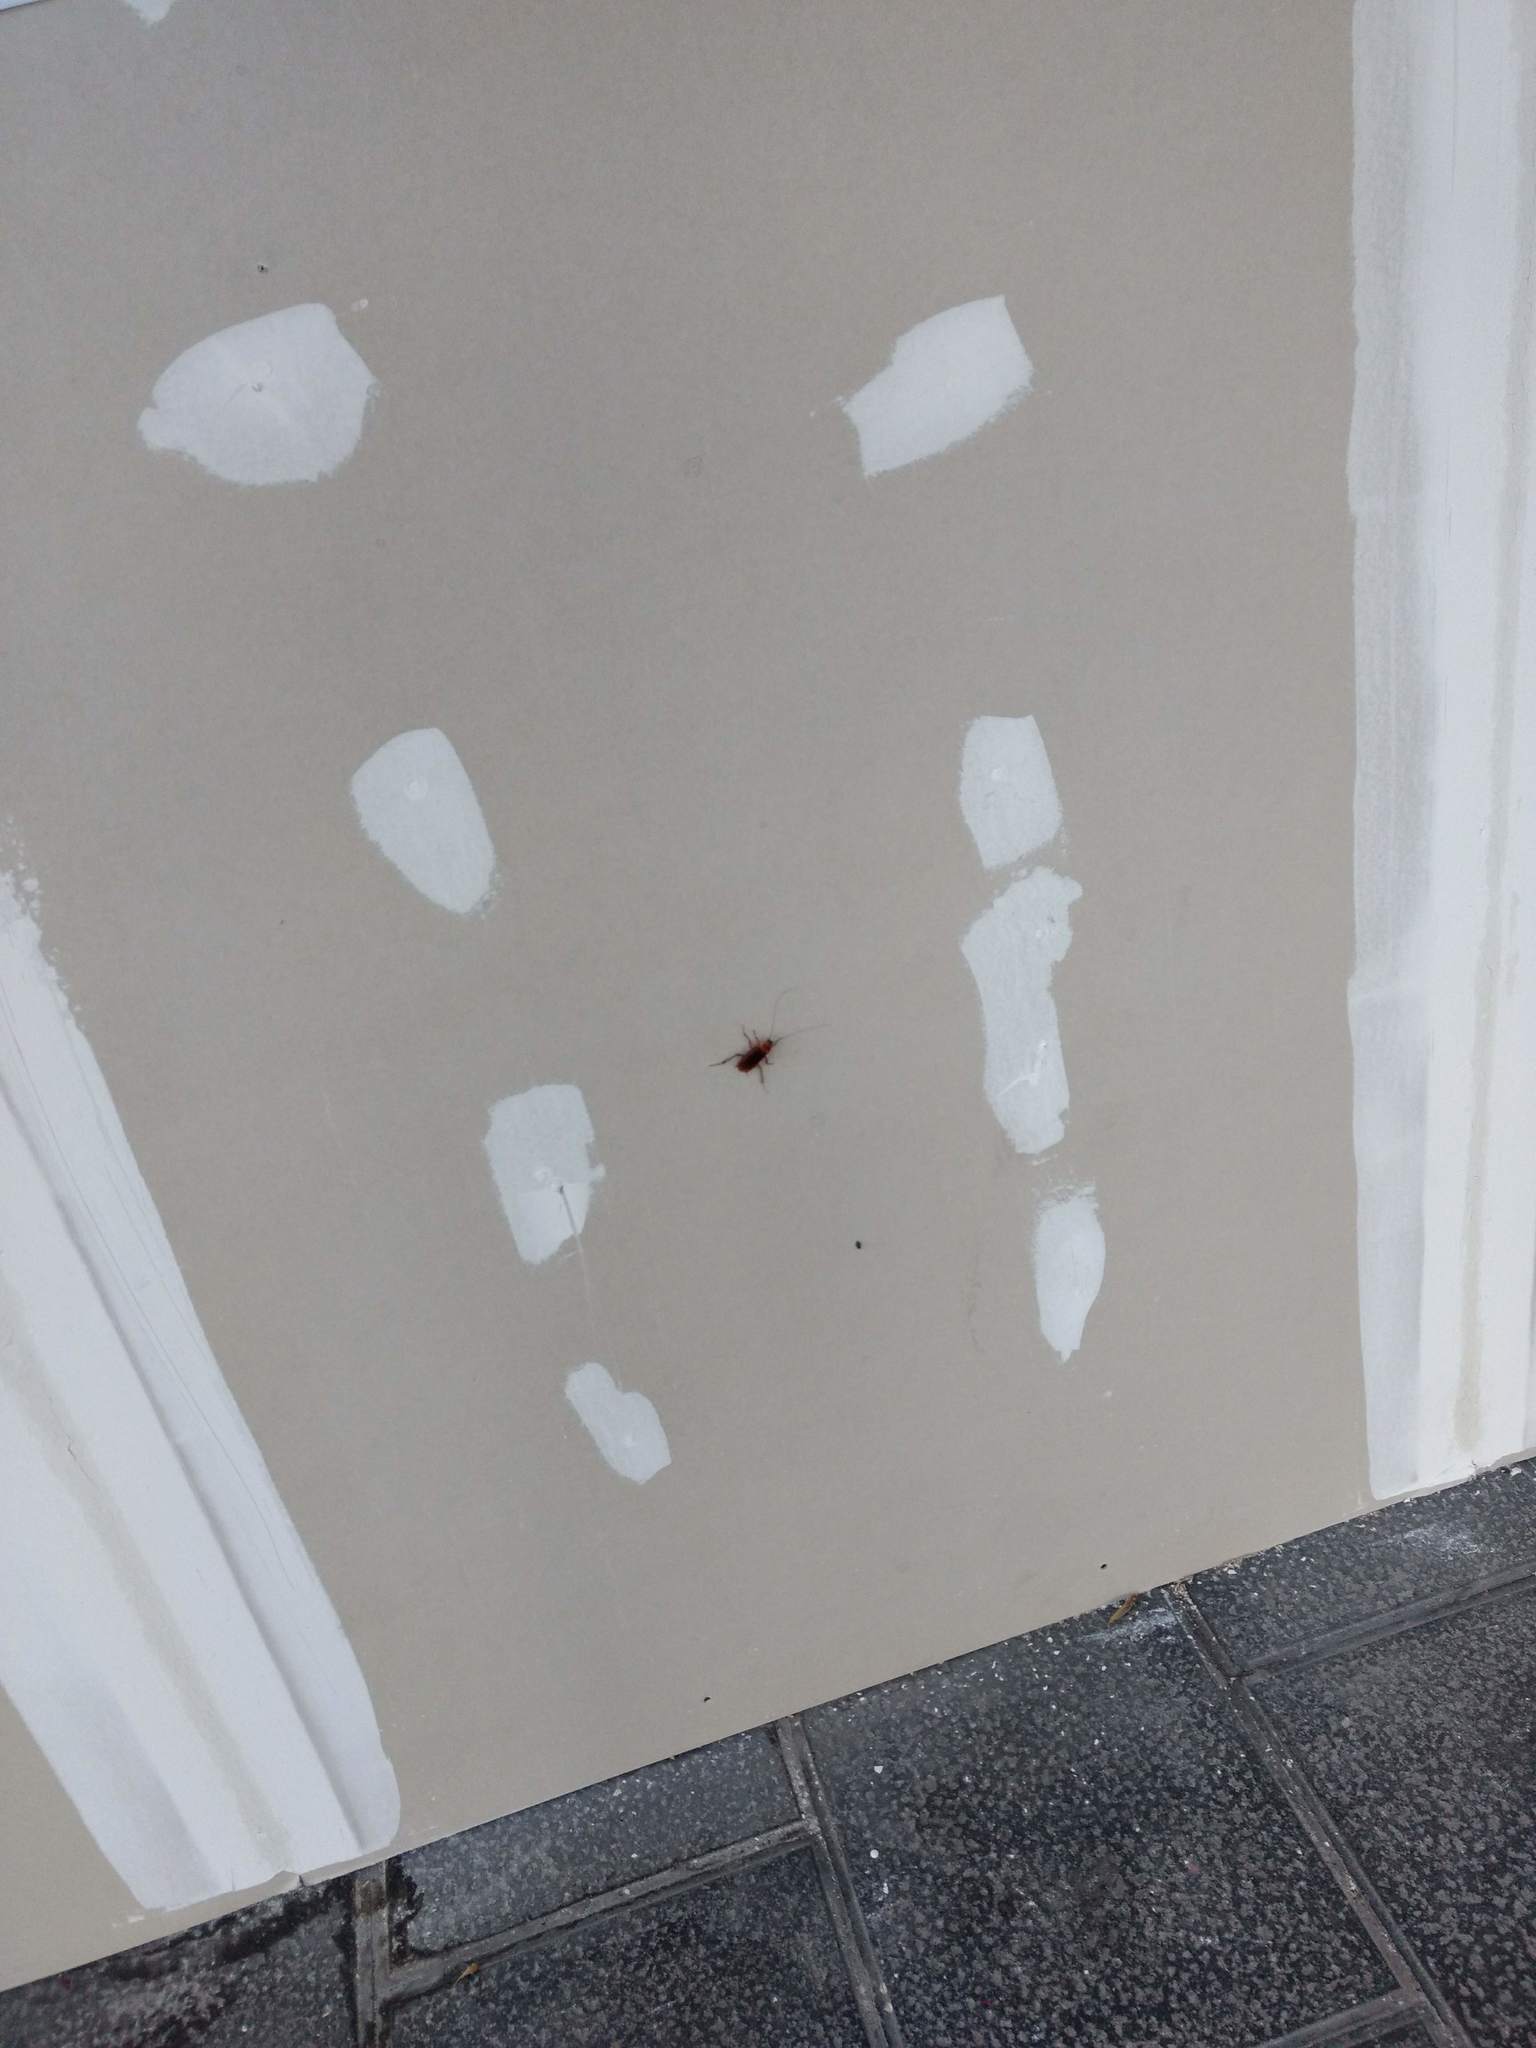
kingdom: Animalia
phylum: Arthropoda
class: Insecta
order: Blattodea
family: Blattidae
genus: Periplaneta
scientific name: Periplaneta americana
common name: American cockroach
